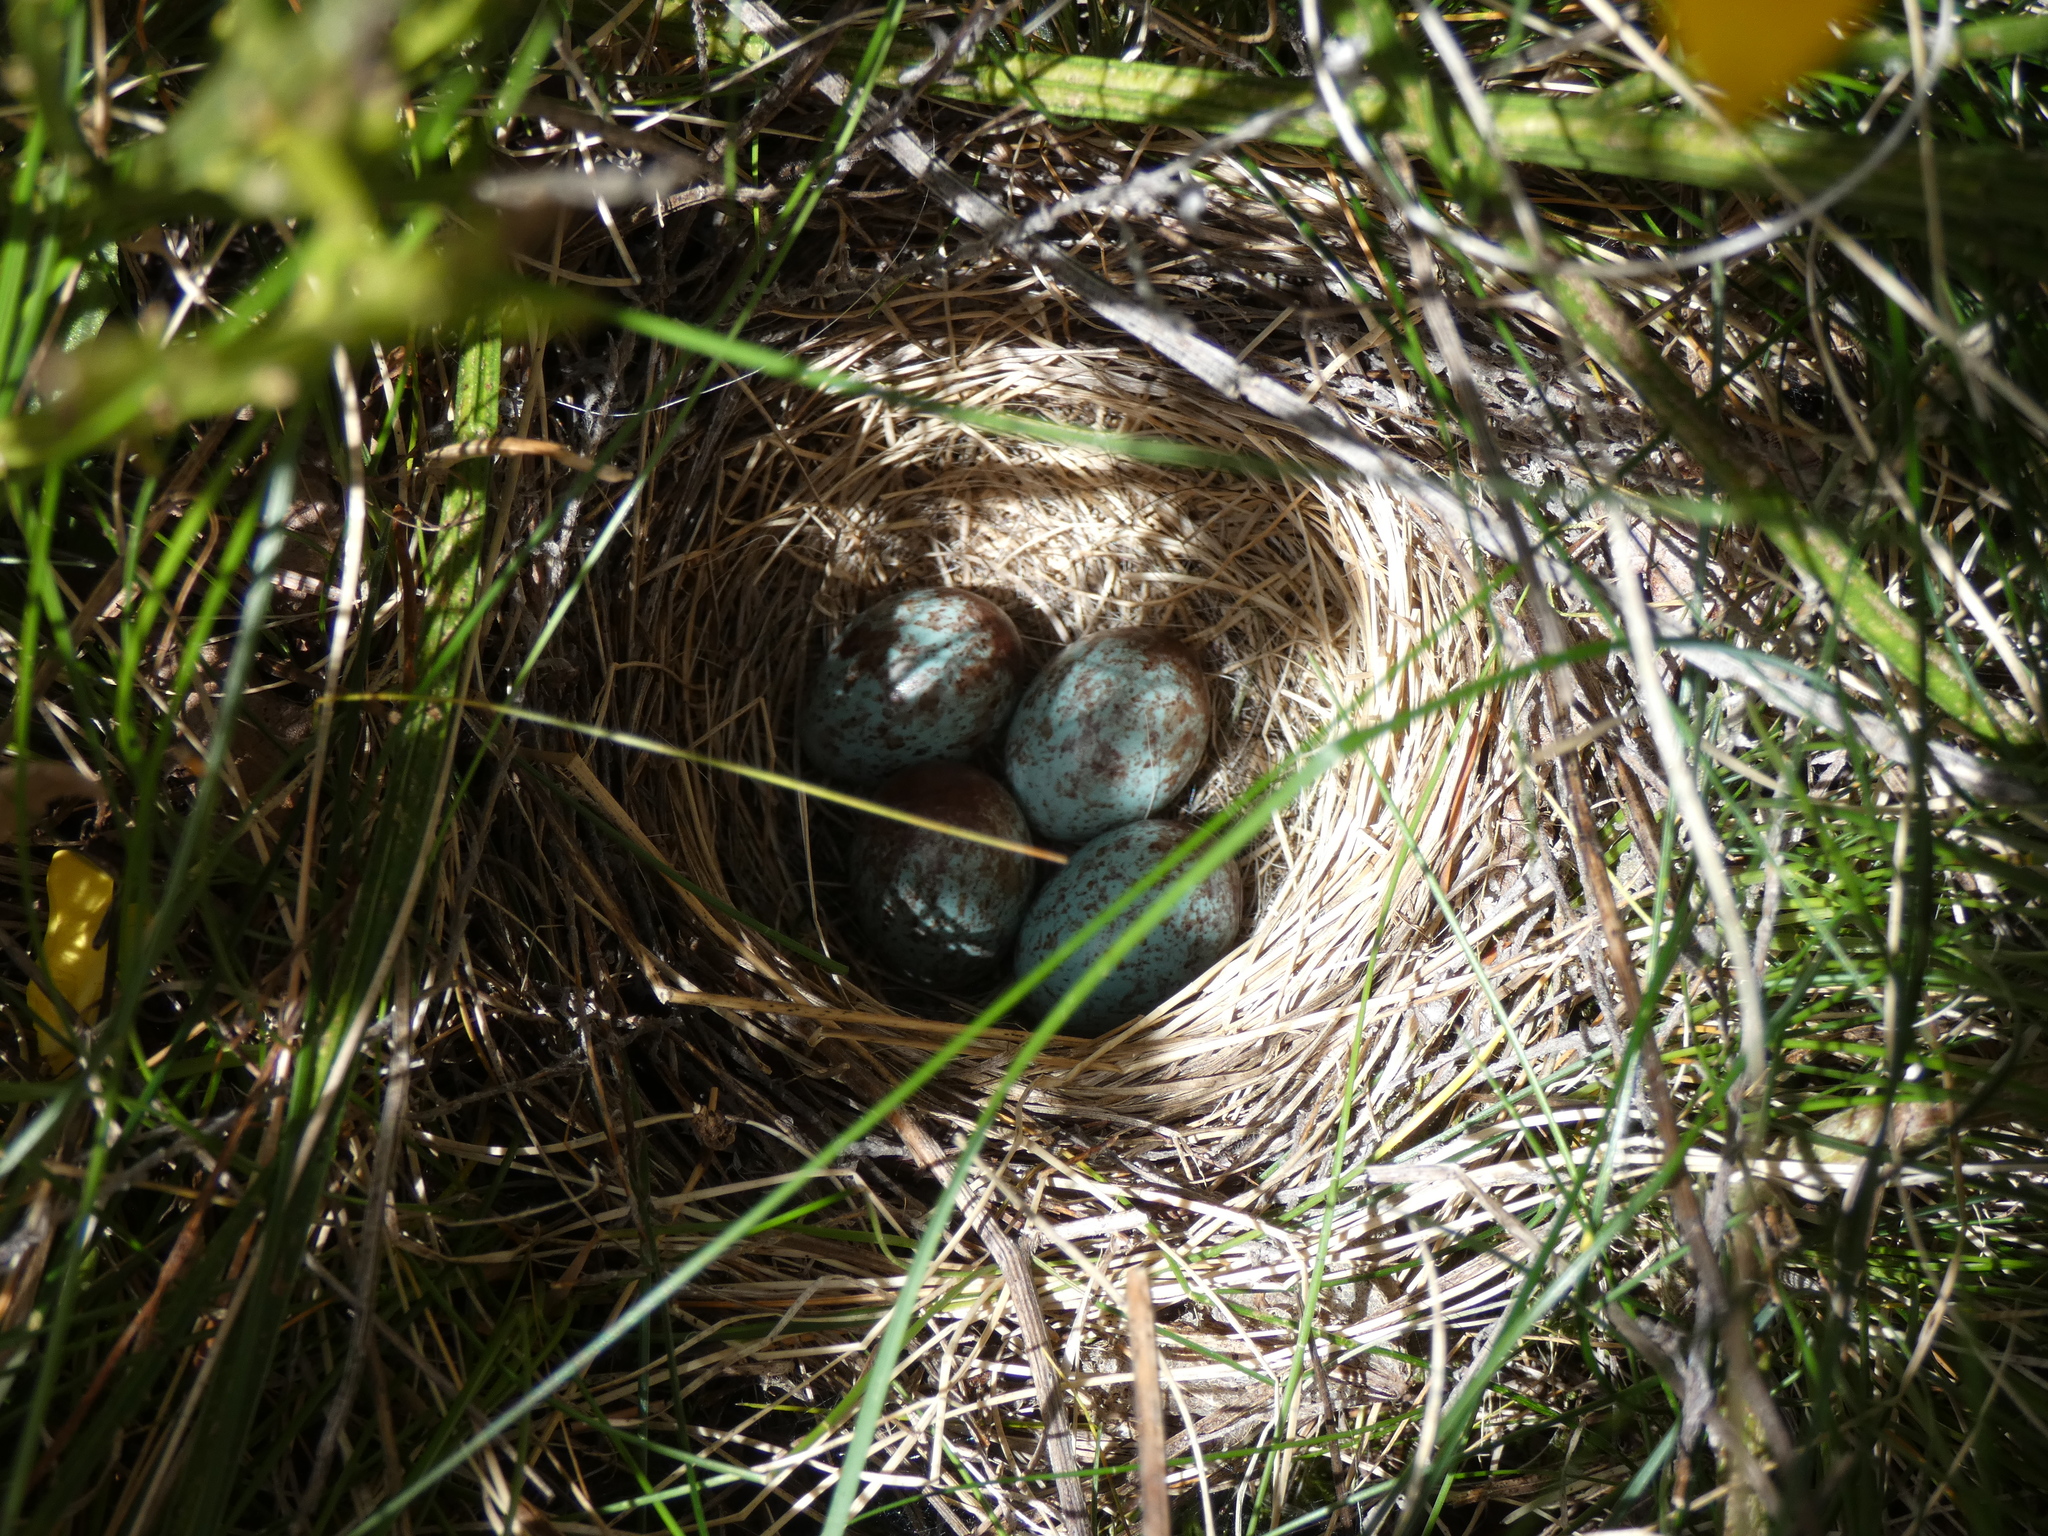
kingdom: Animalia
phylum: Chordata
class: Aves
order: Passeriformes
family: Passerellidae
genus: Zonotrichia
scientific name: Zonotrichia leucophrys
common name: White-crowned sparrow
